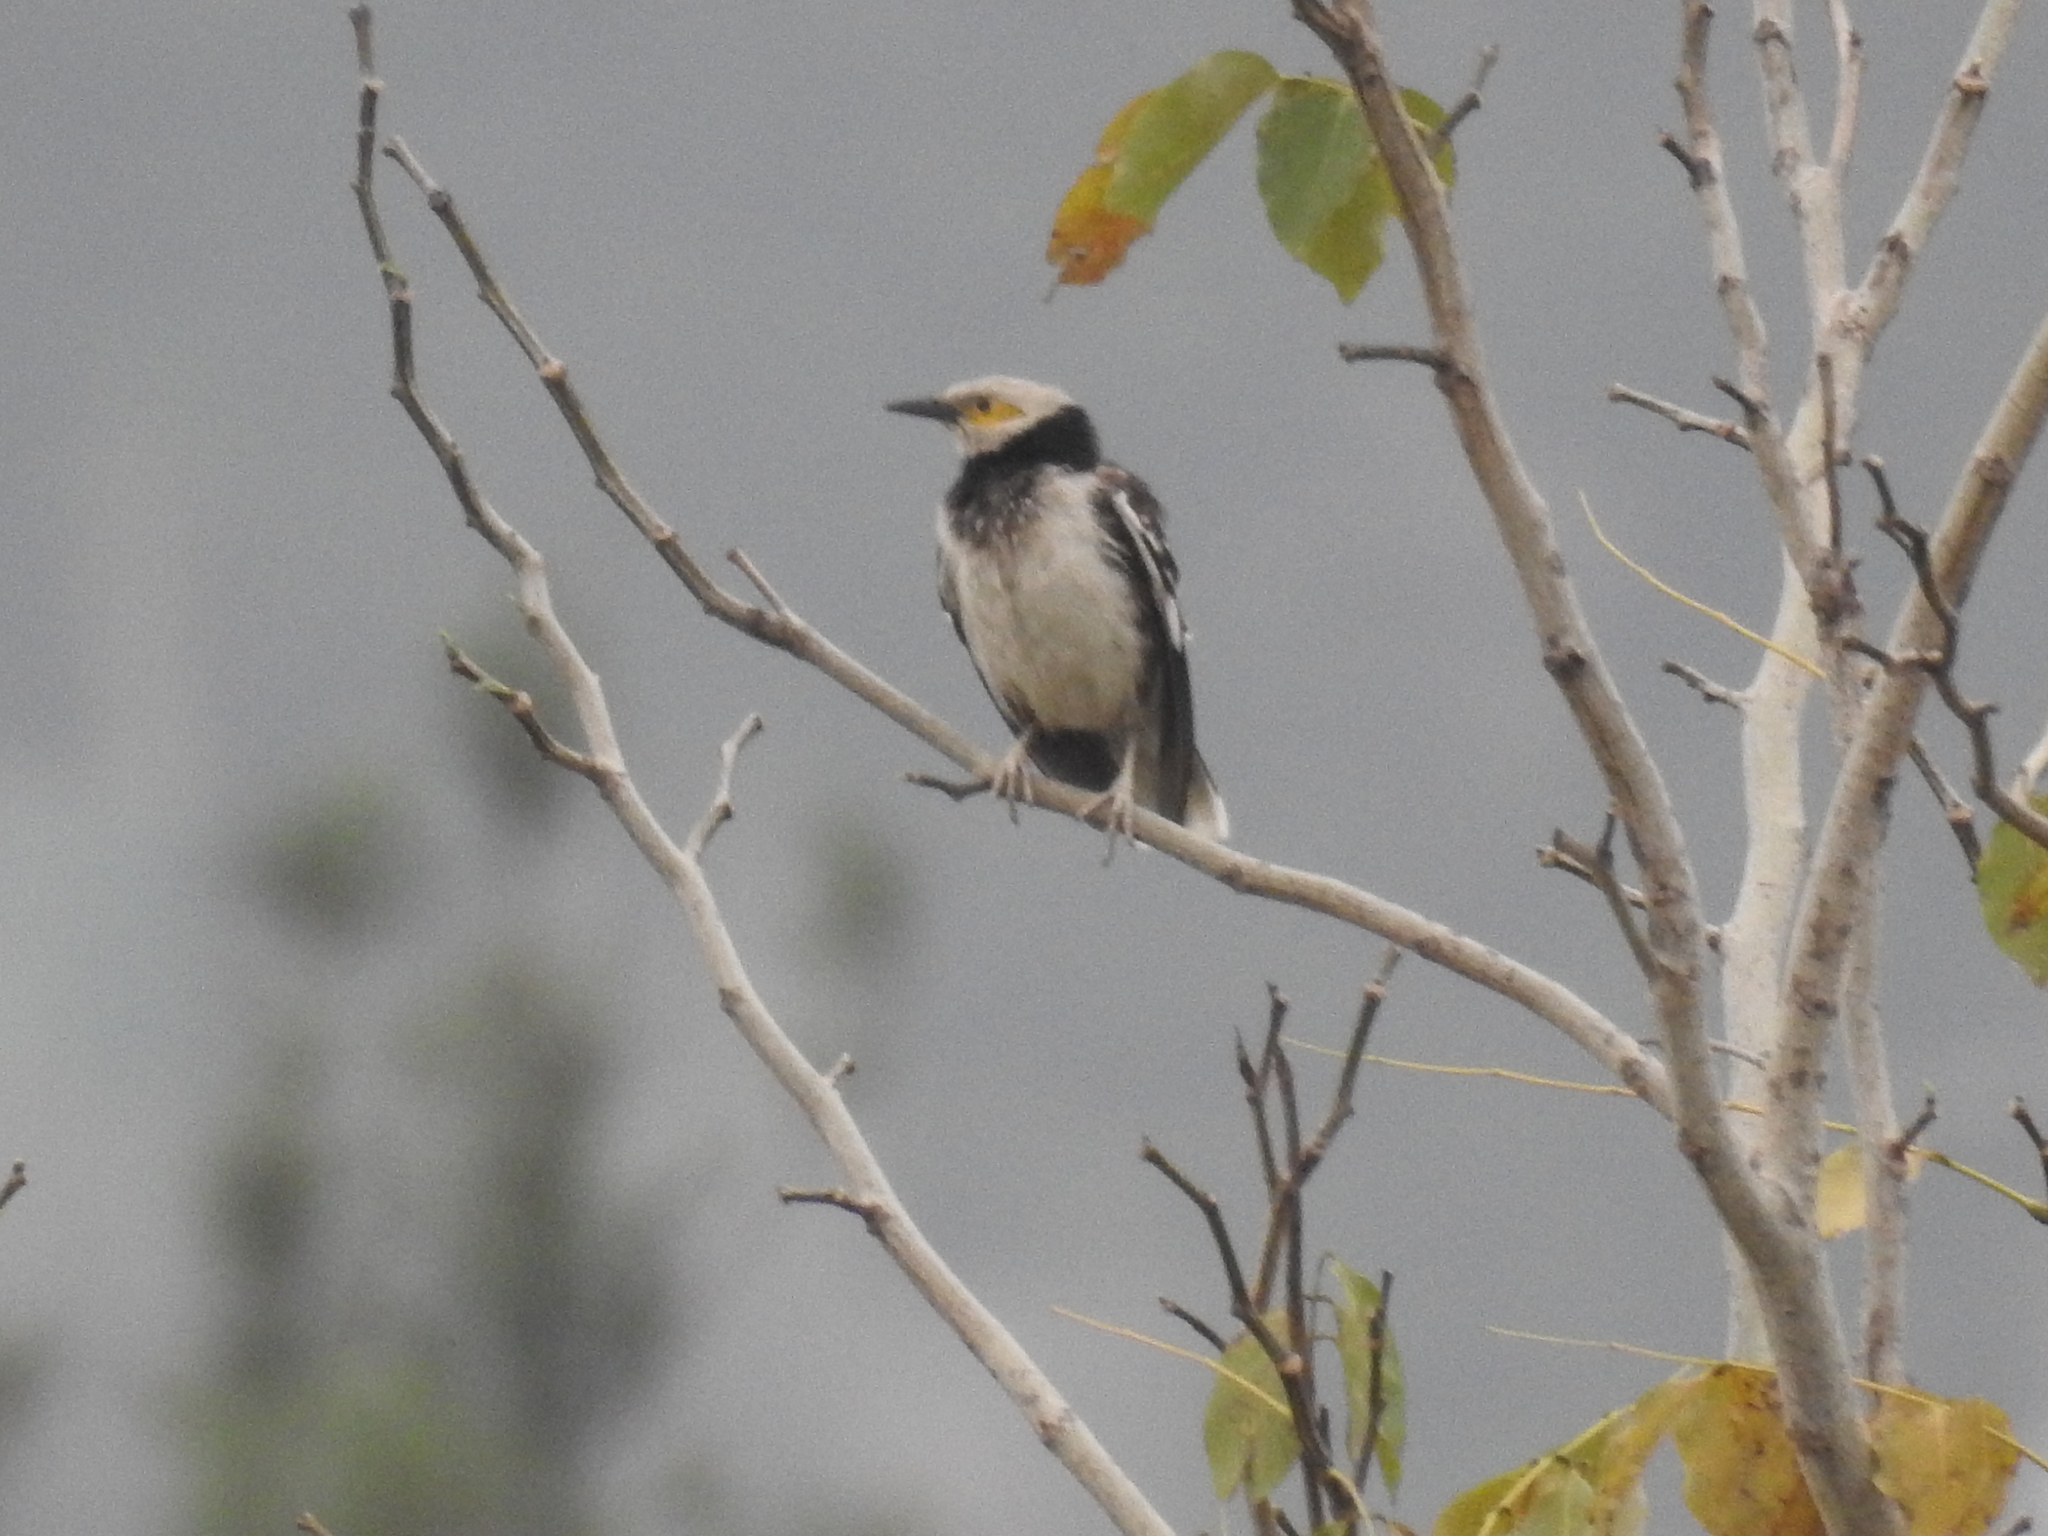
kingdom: Animalia
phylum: Chordata
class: Aves
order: Passeriformes
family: Sturnidae
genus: Gracupica
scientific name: Gracupica nigricollis
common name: Black-collared starling
